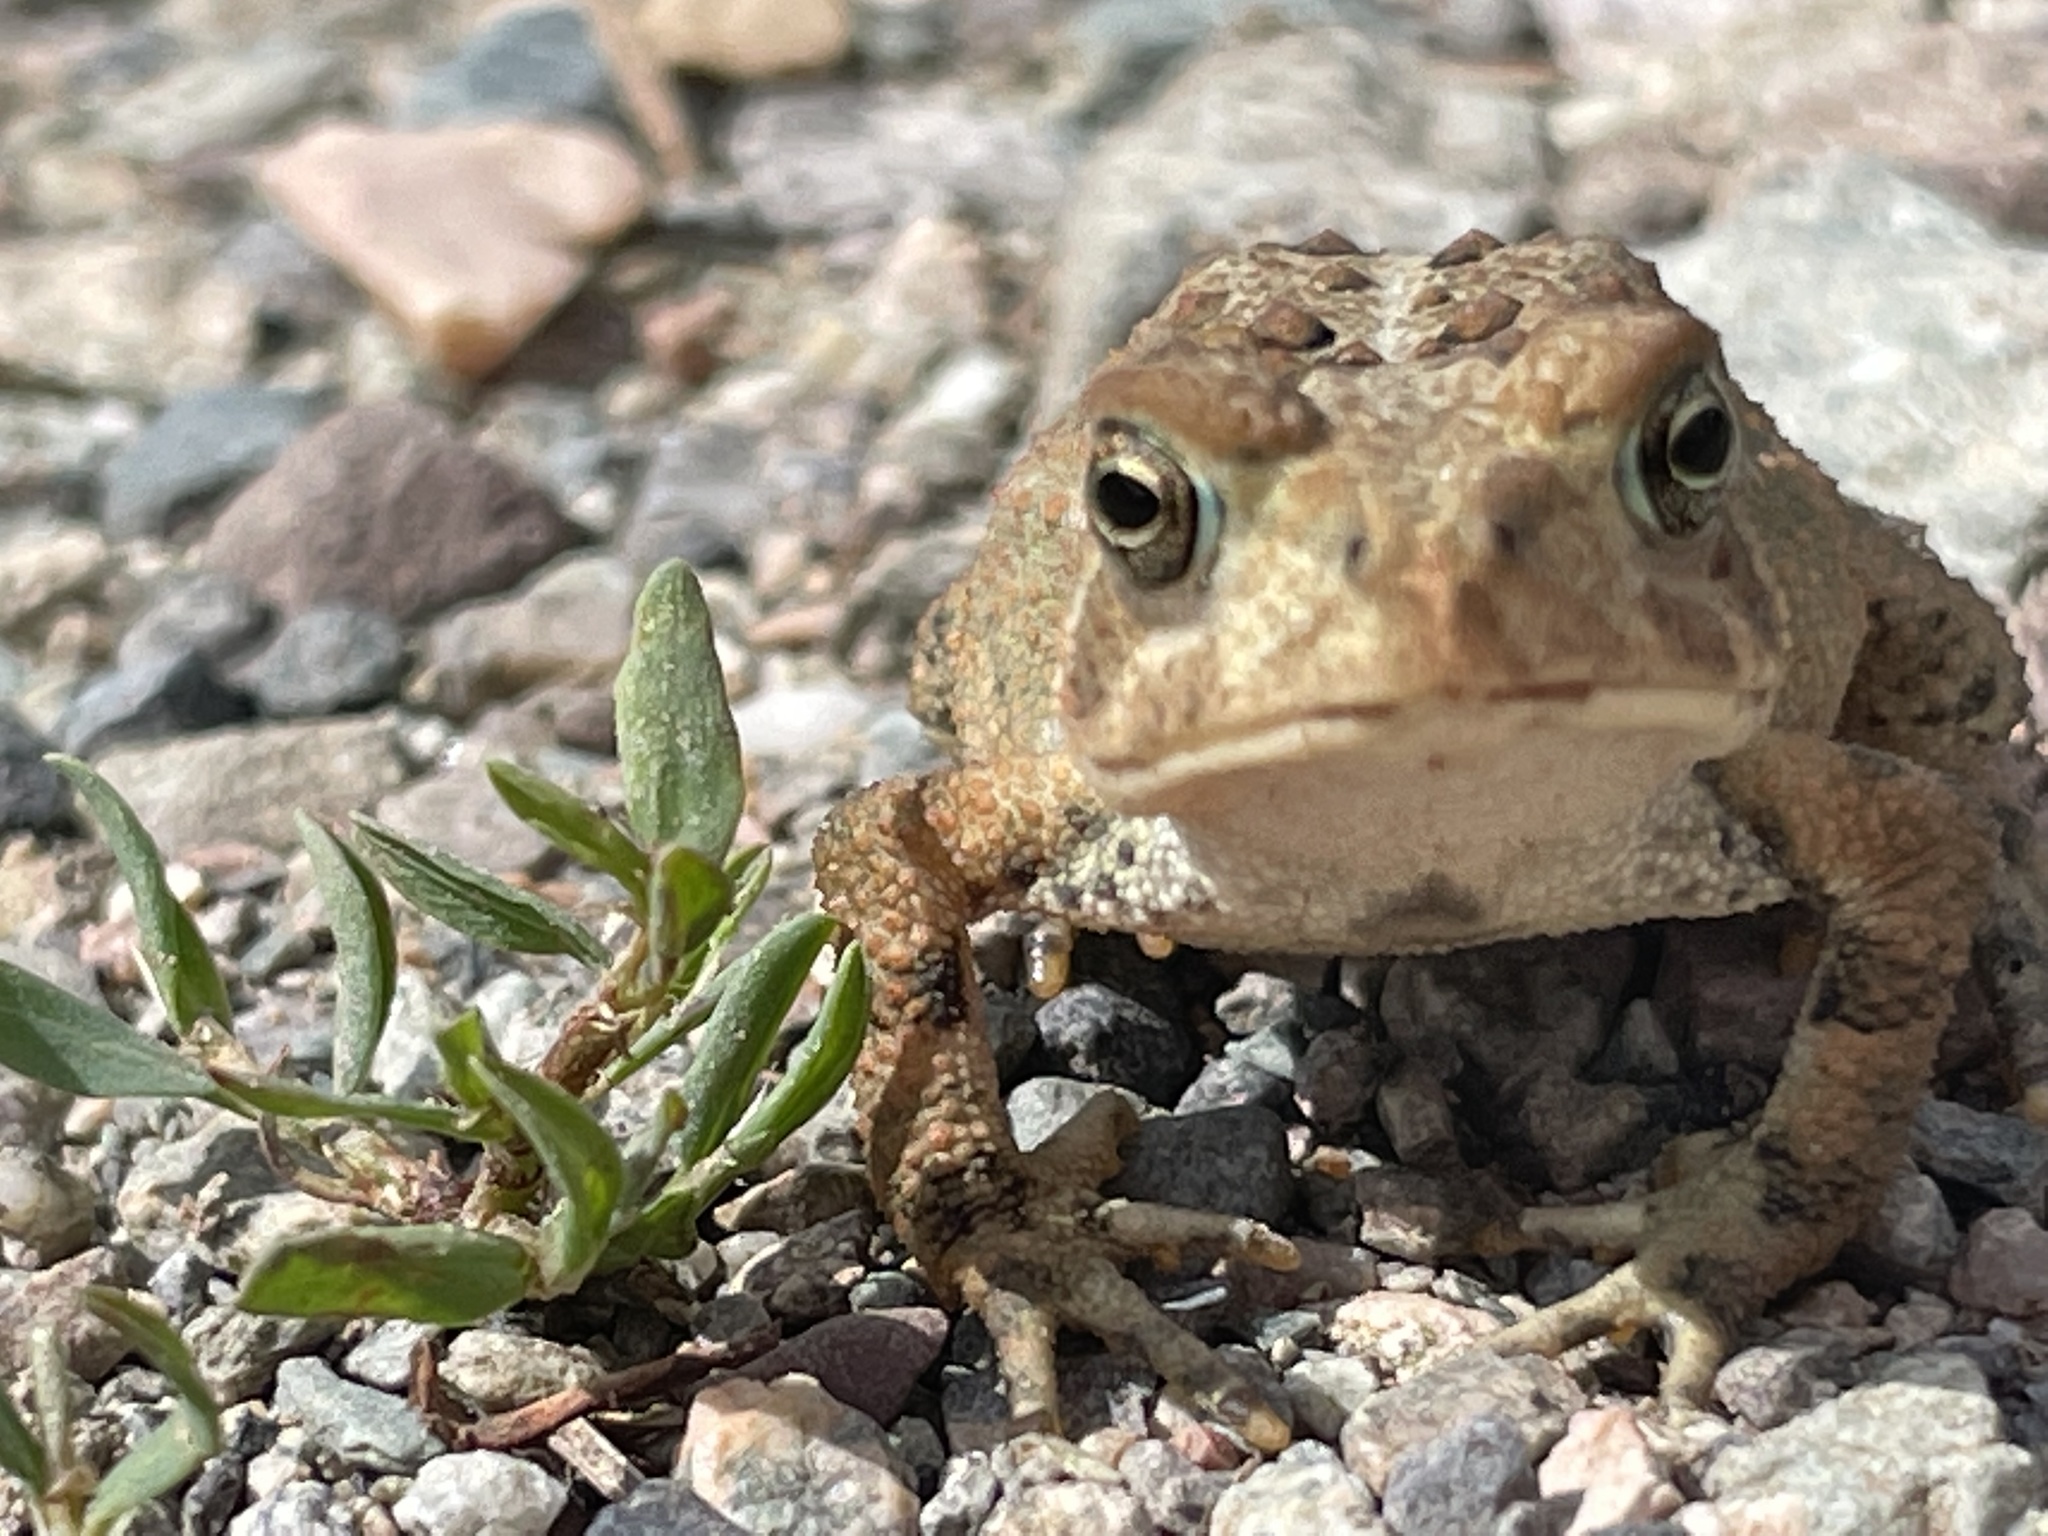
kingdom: Animalia
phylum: Chordata
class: Amphibia
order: Anura
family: Bufonidae
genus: Anaxyrus
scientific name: Anaxyrus americanus
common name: American toad
